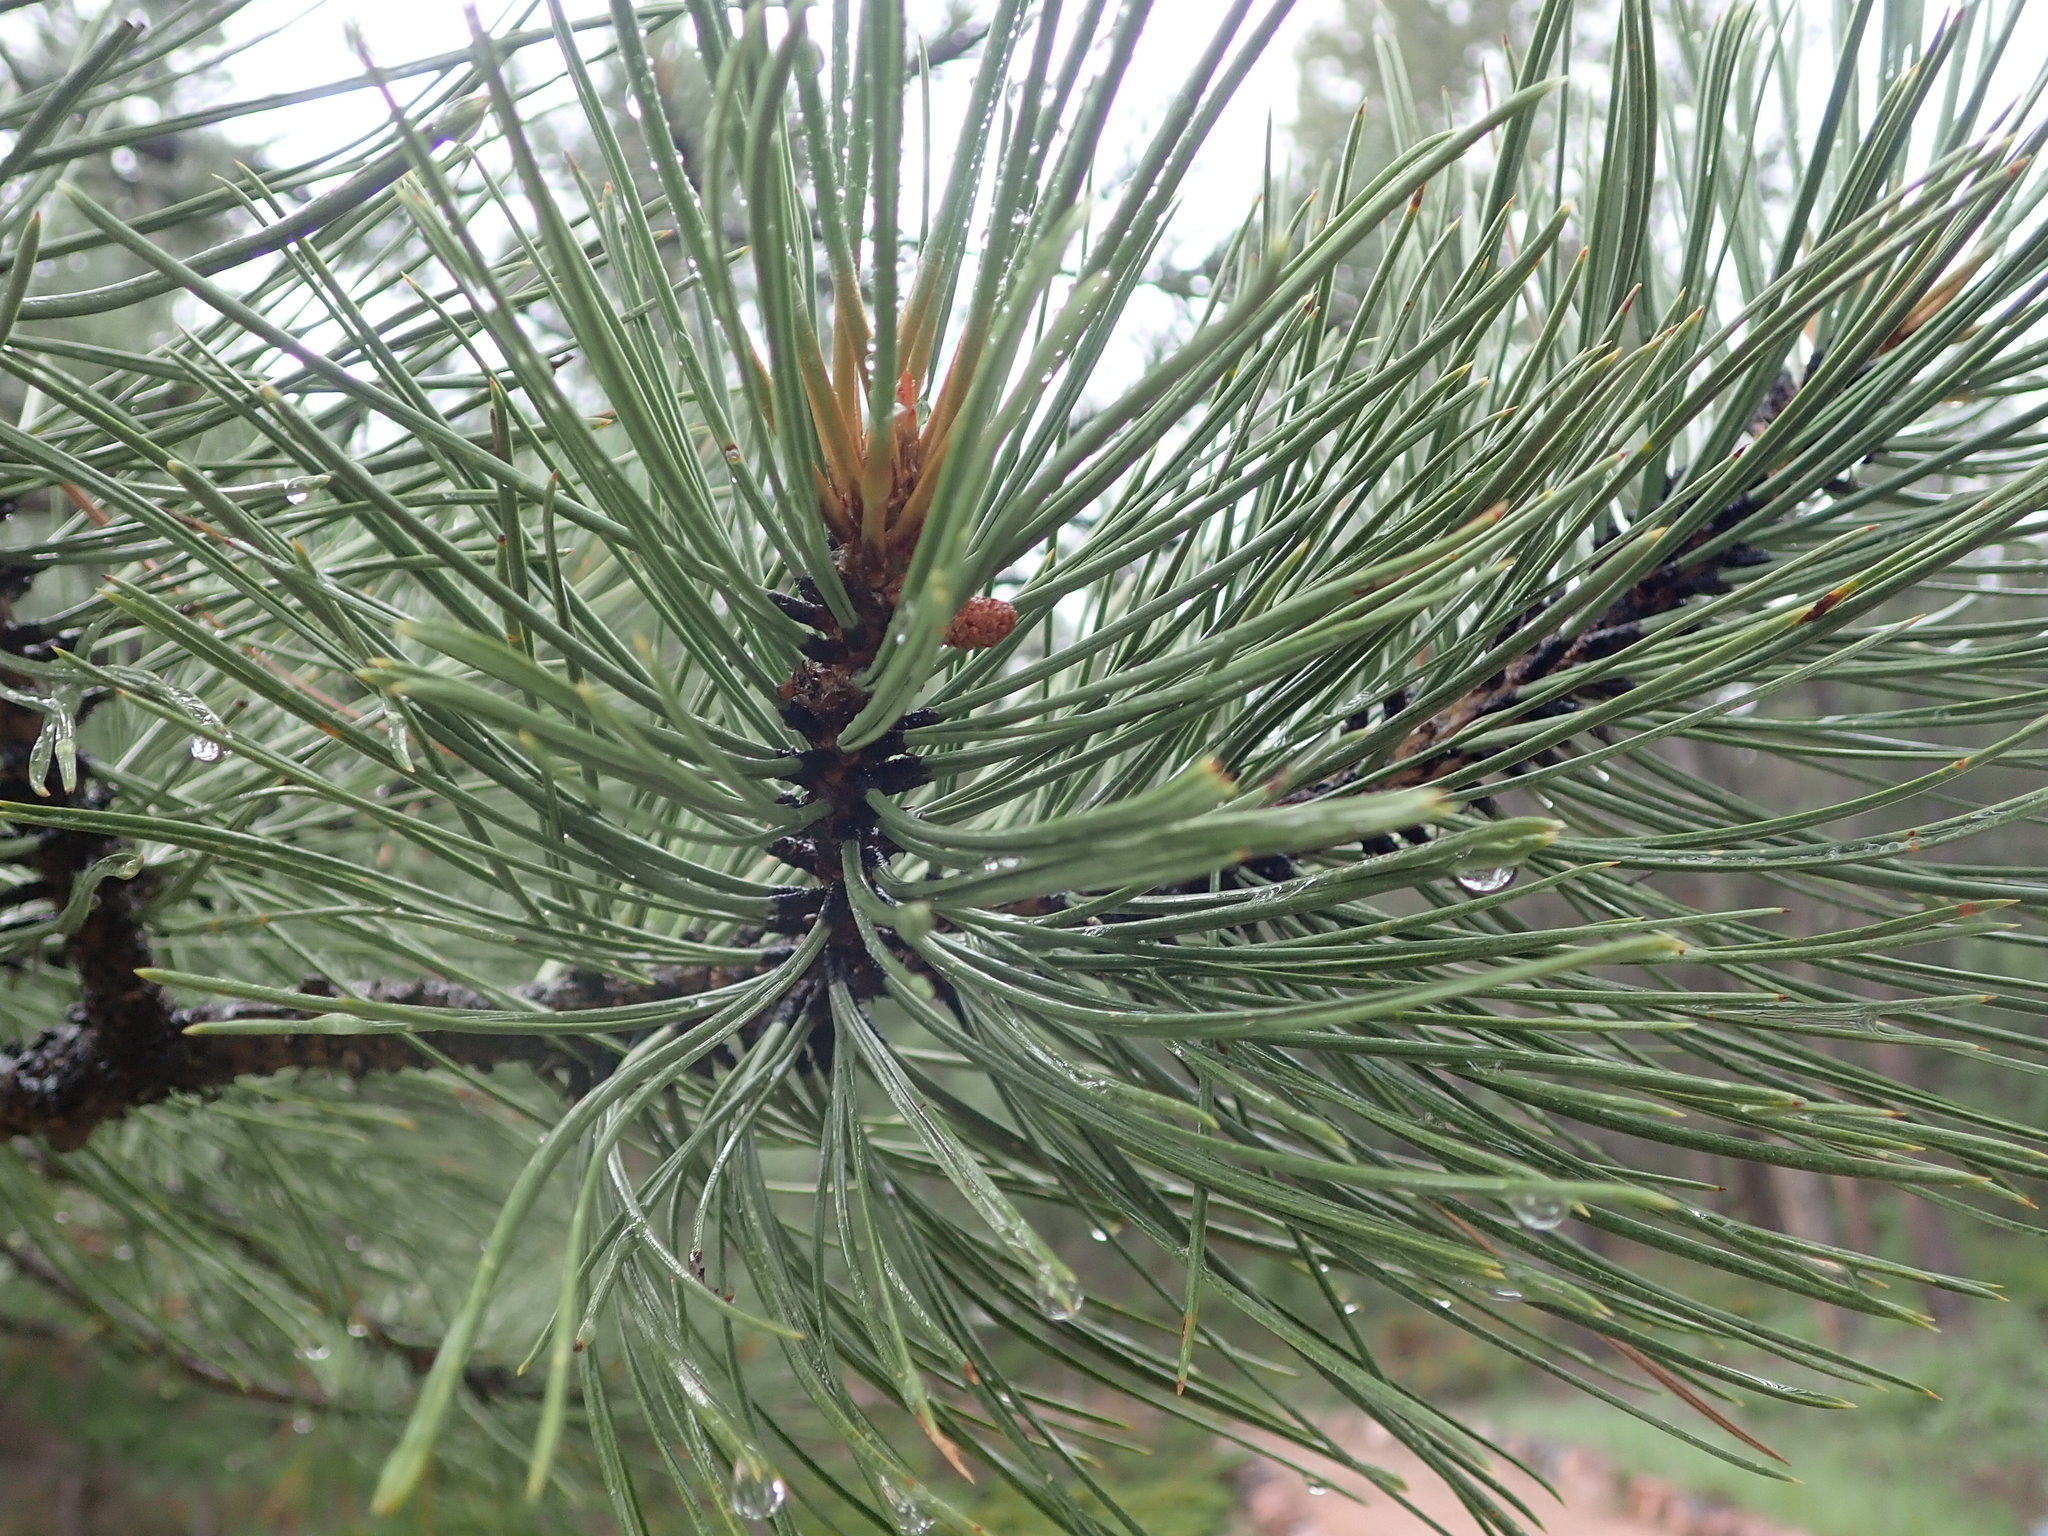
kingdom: Plantae
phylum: Tracheophyta
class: Pinopsida
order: Pinales
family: Pinaceae
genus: Pinus
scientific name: Pinus ponderosa
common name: Western yellow-pine
